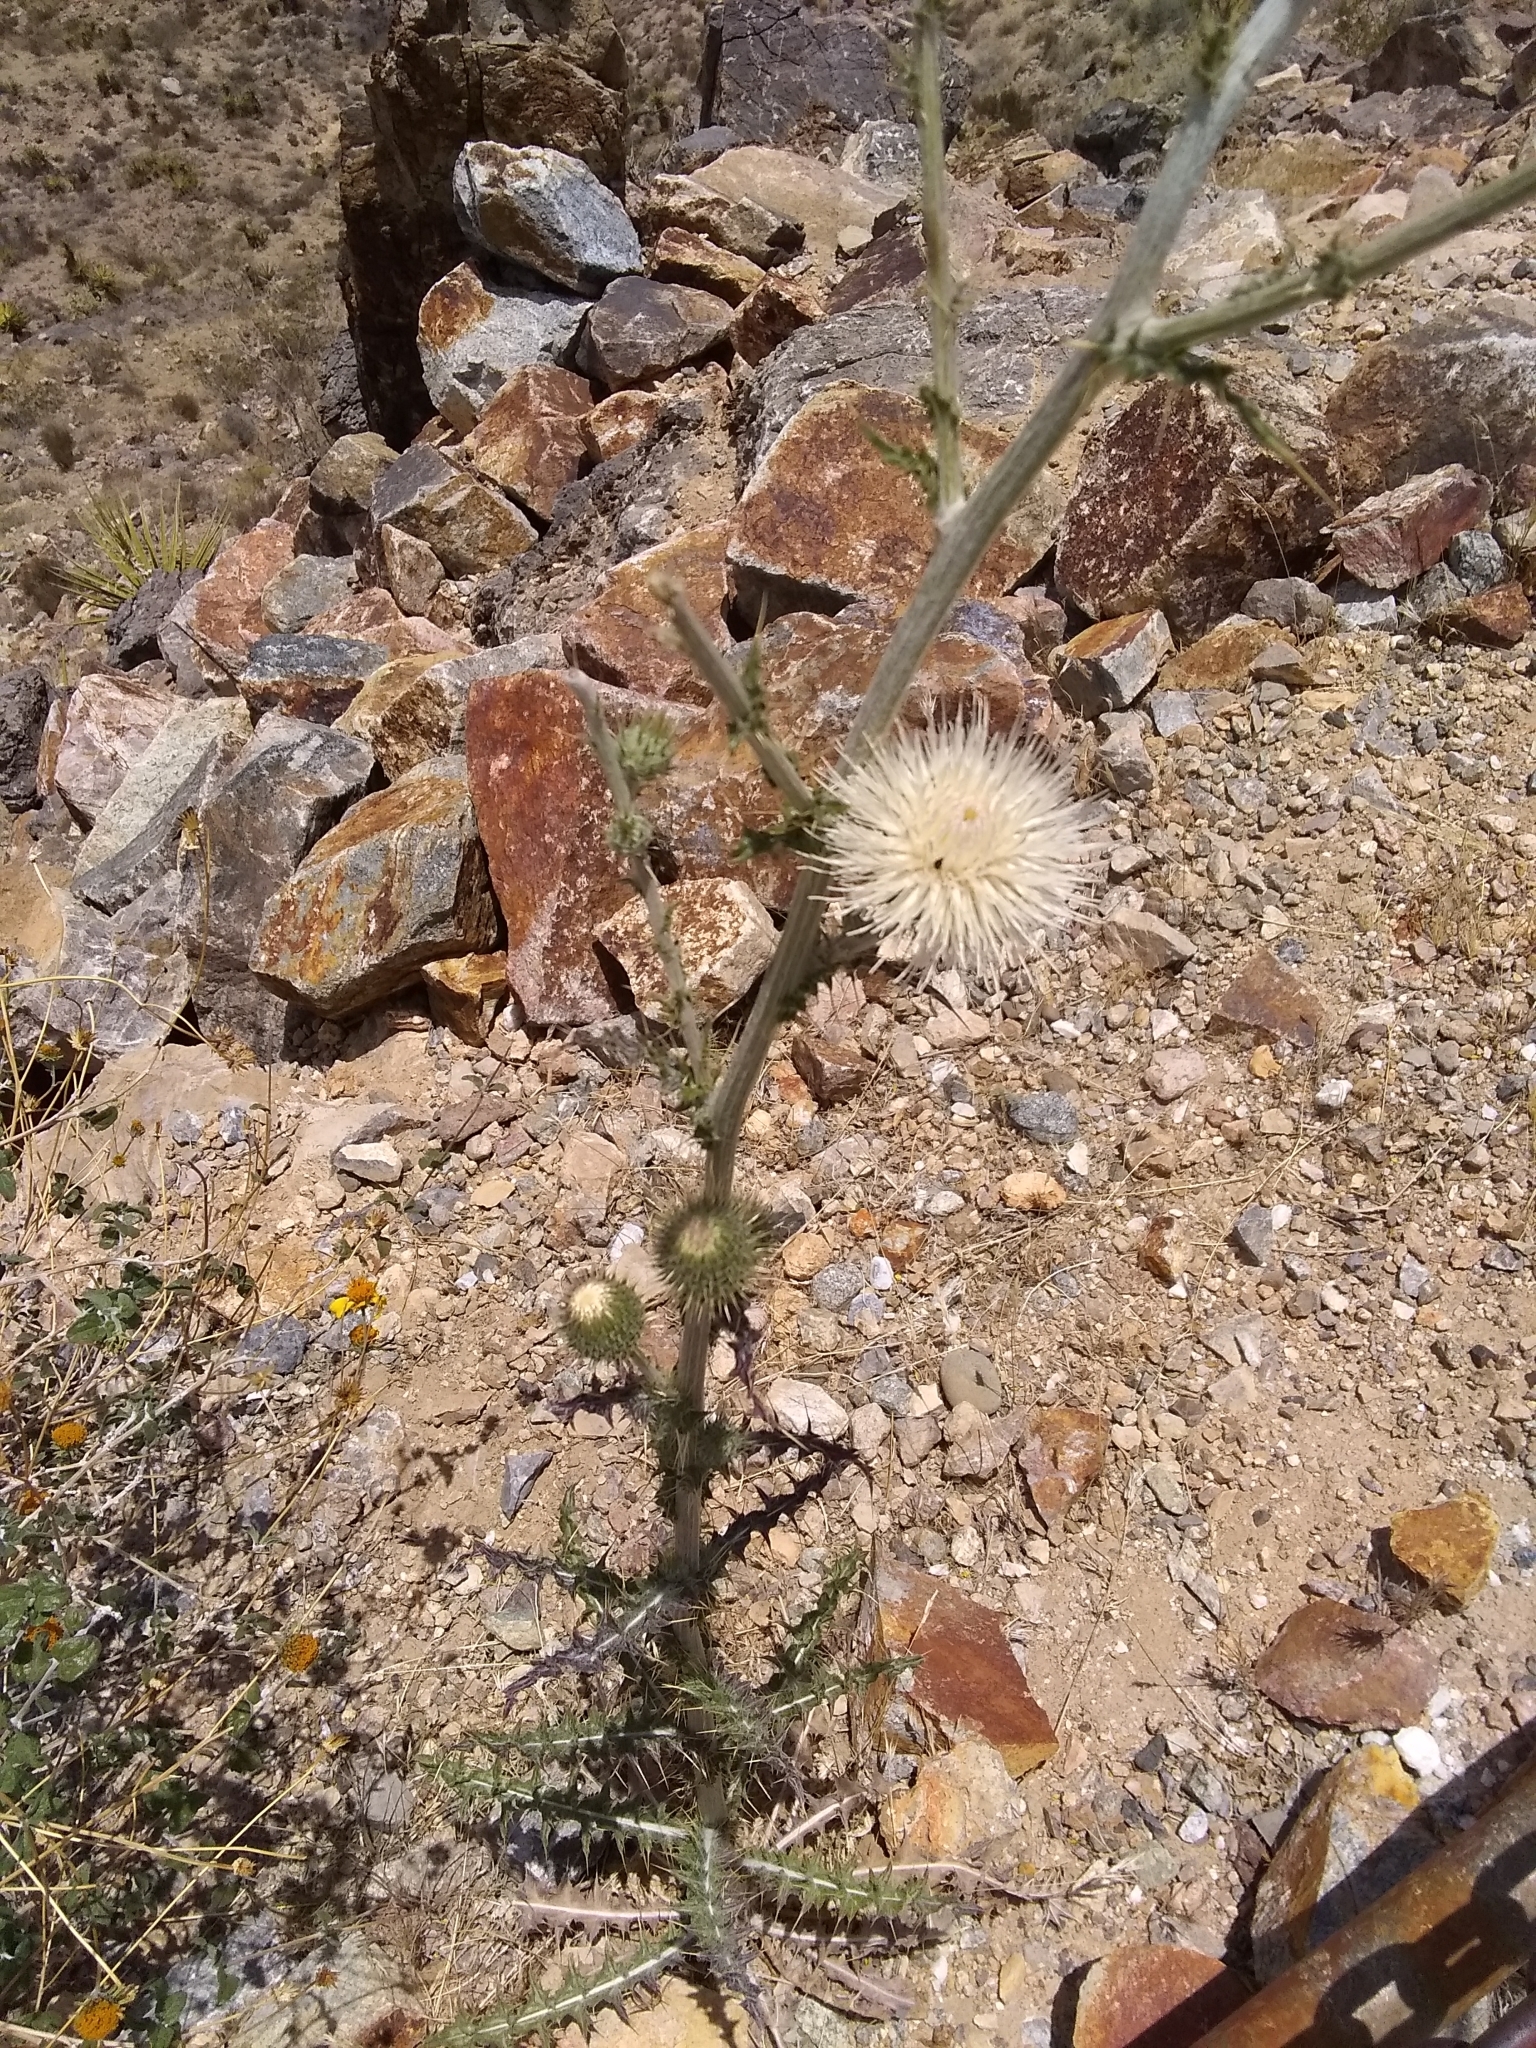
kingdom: Plantae
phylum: Tracheophyta
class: Magnoliopsida
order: Asterales
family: Asteraceae
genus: Cirsium
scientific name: Cirsium neomexicanum
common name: New mexico thistle
